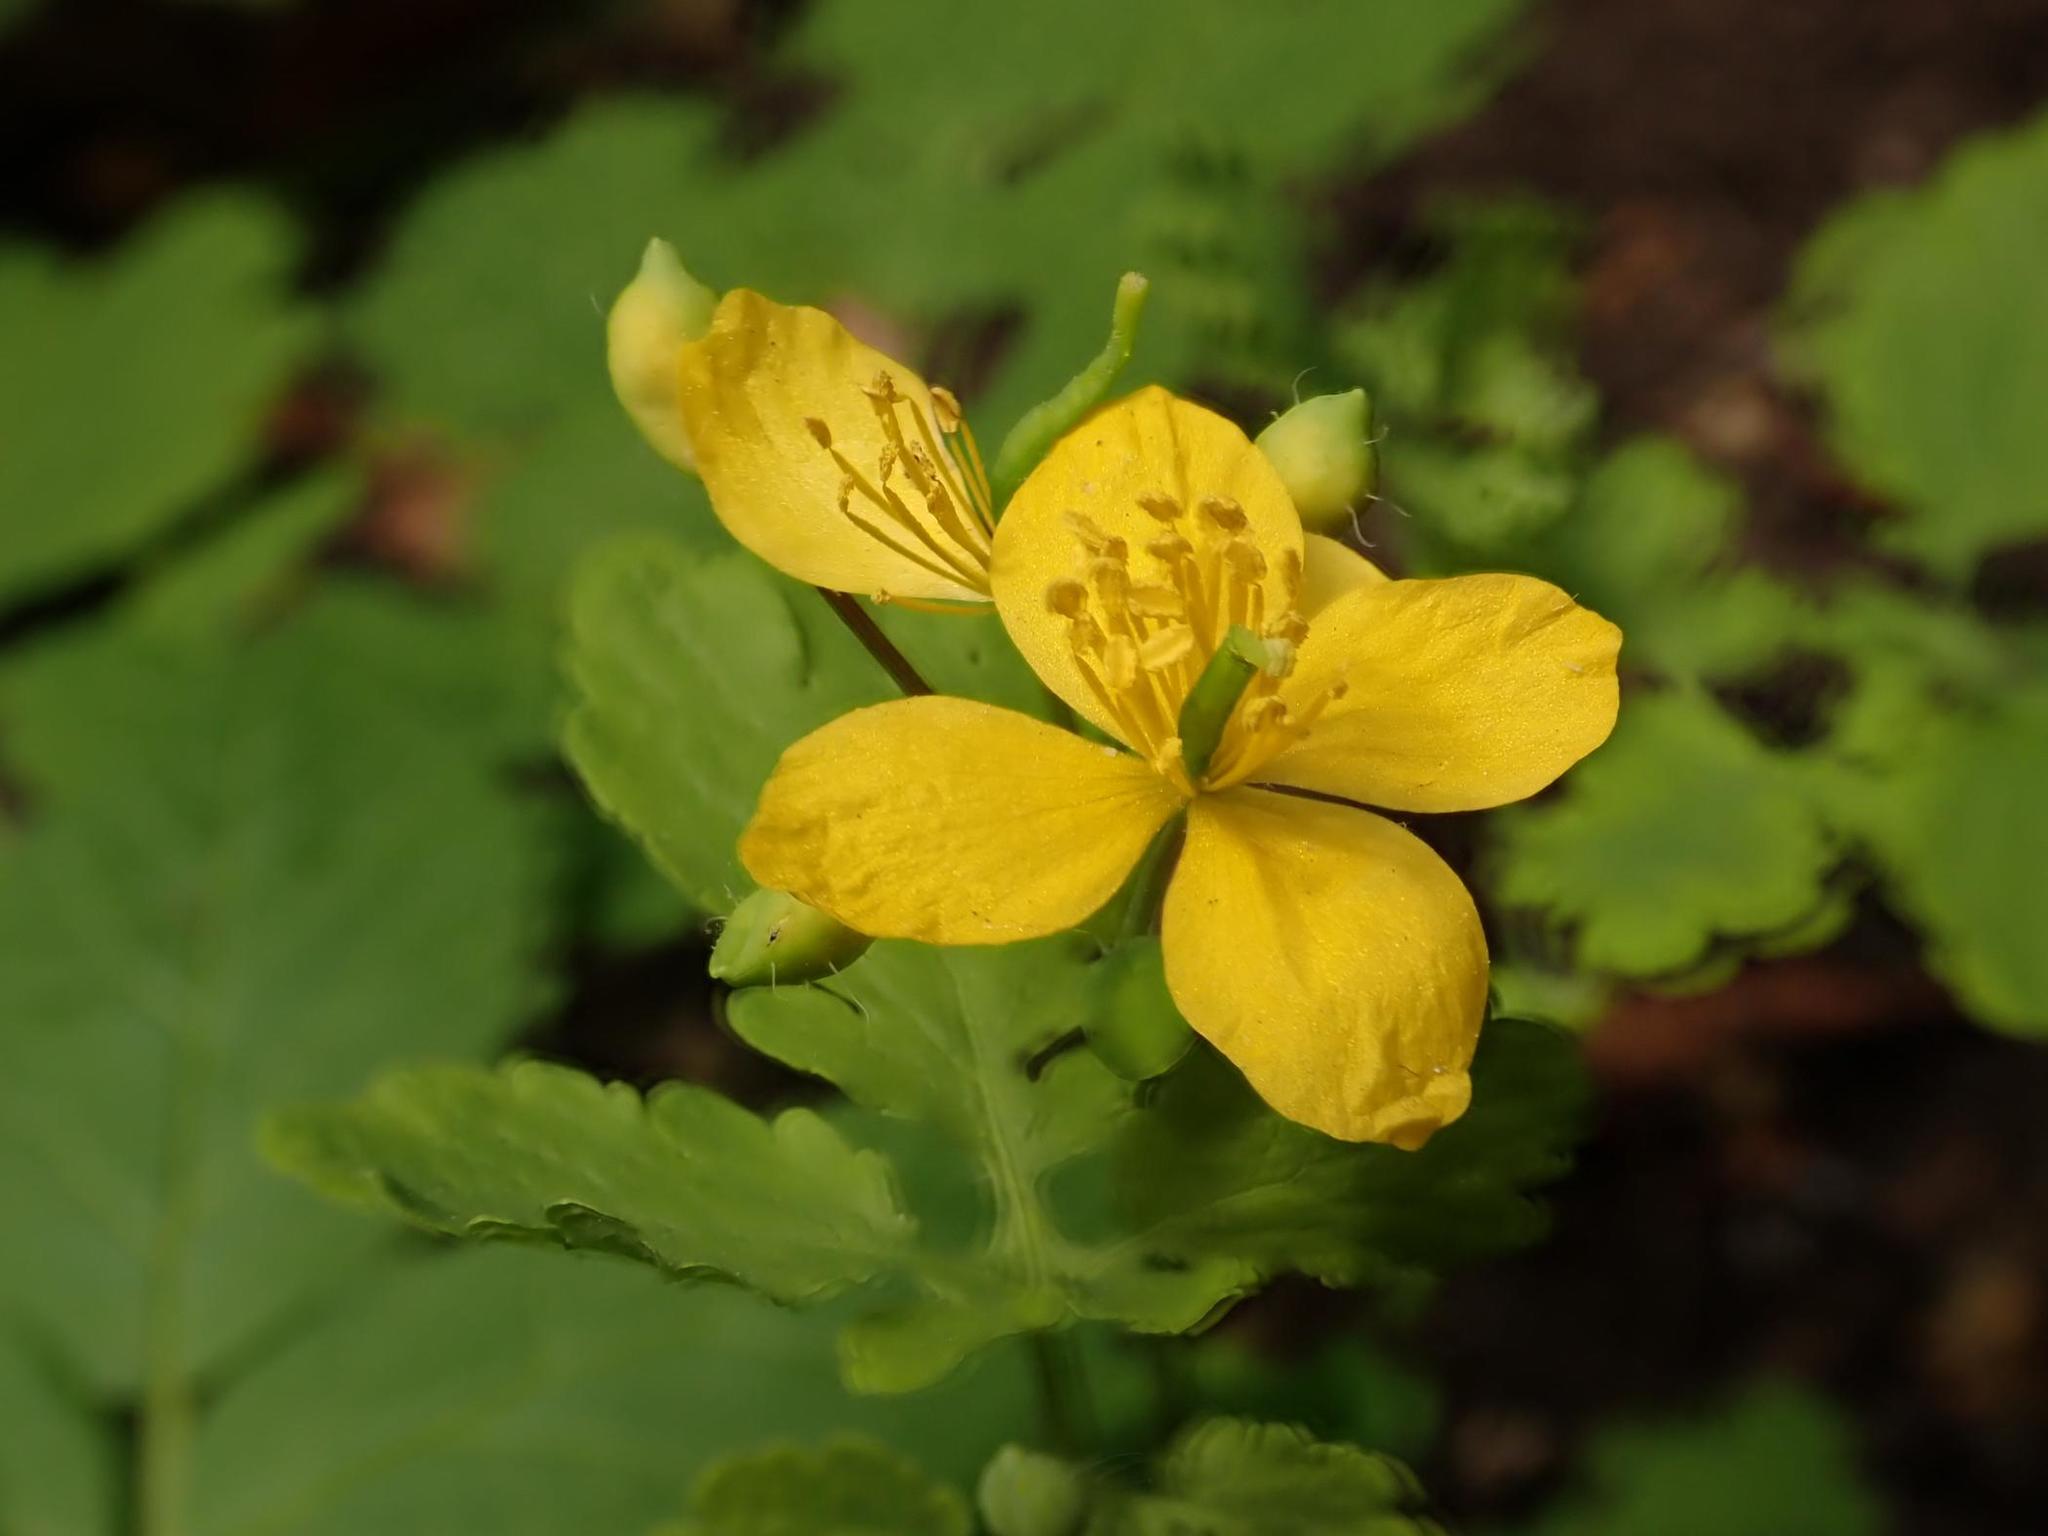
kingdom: Plantae
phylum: Tracheophyta
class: Magnoliopsida
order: Ranunculales
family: Papaveraceae
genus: Chelidonium
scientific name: Chelidonium majus
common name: Greater celandine
